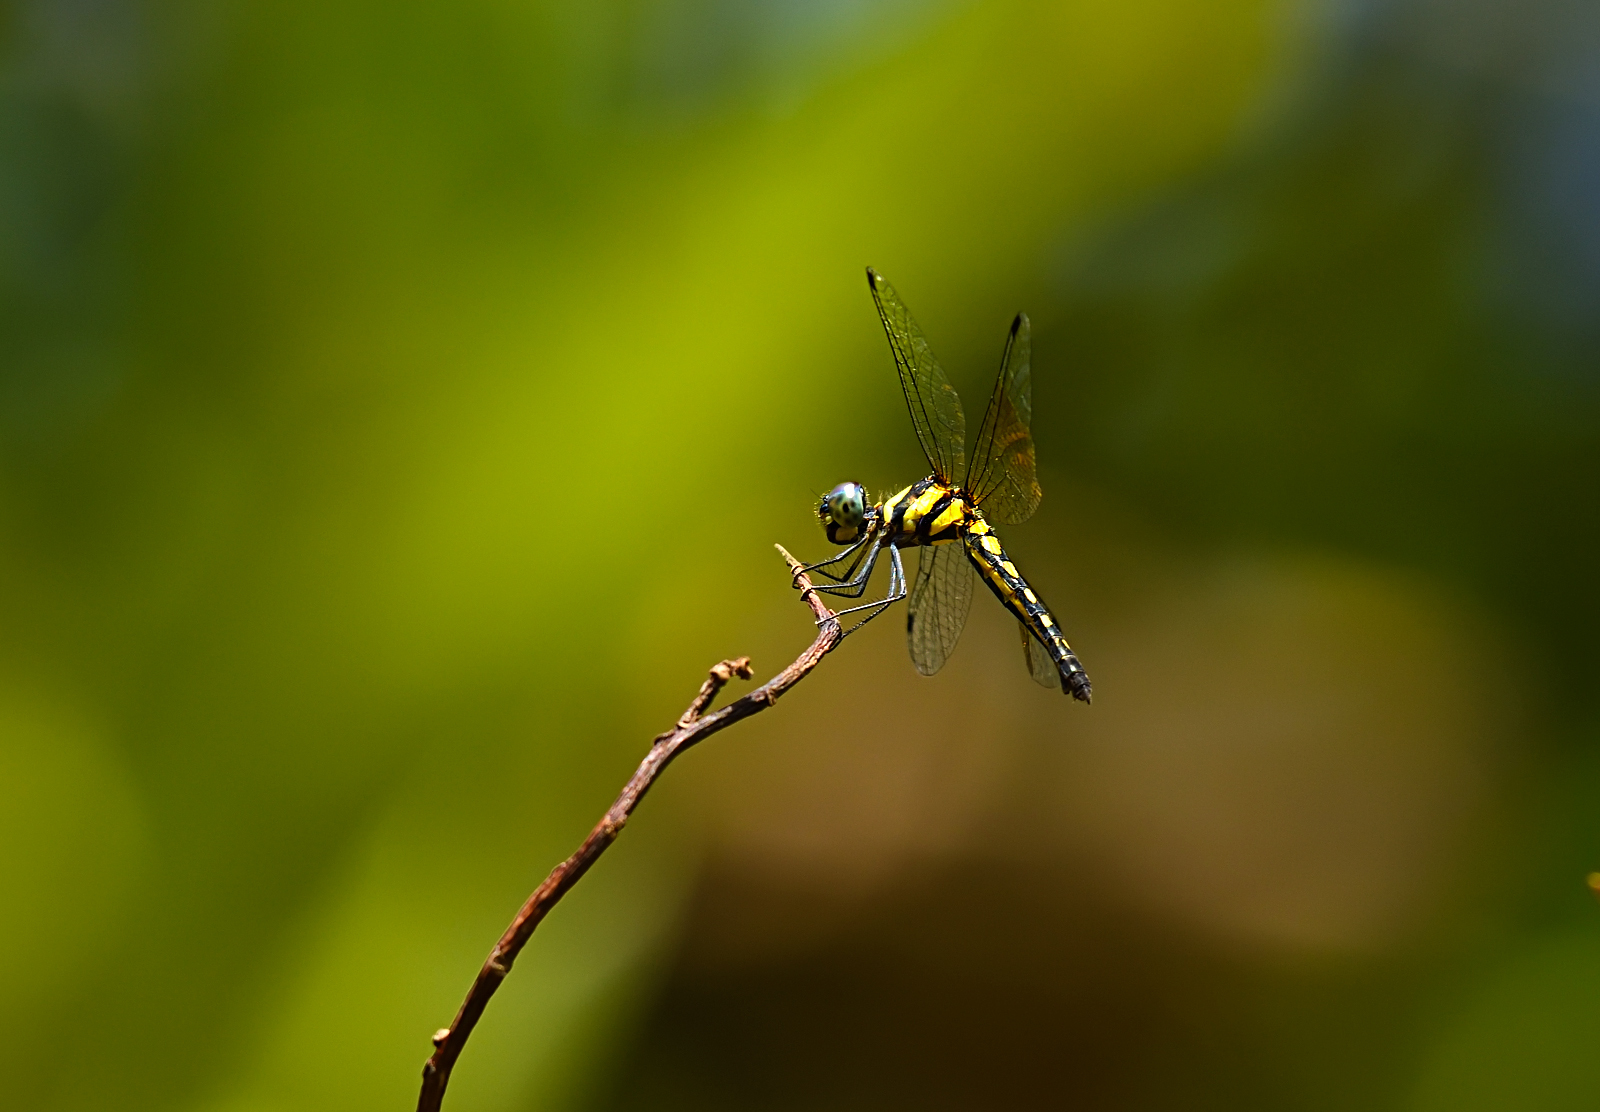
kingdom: Animalia
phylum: Arthropoda
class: Insecta
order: Odonata
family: Libellulidae
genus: Tetrathemis
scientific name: Tetrathemis platyptera
